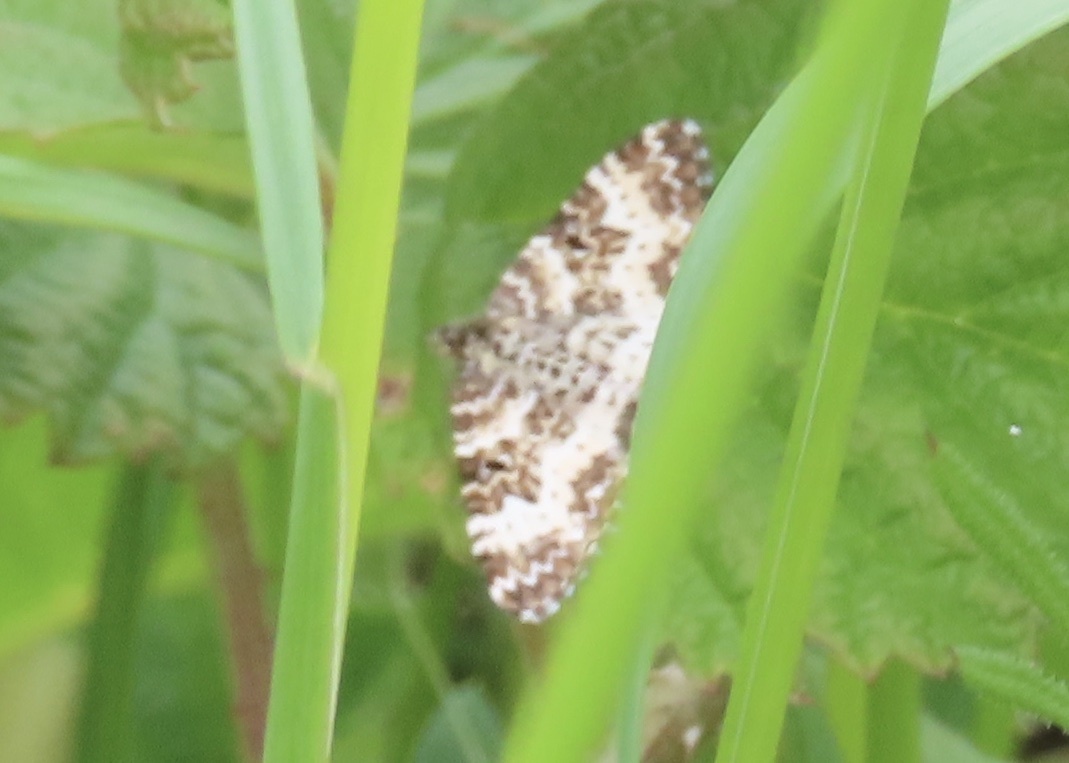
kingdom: Animalia
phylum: Arthropoda
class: Insecta
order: Lepidoptera
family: Geometridae
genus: Epirrhoe
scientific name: Epirrhoe tristata
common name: Small argent & sable
